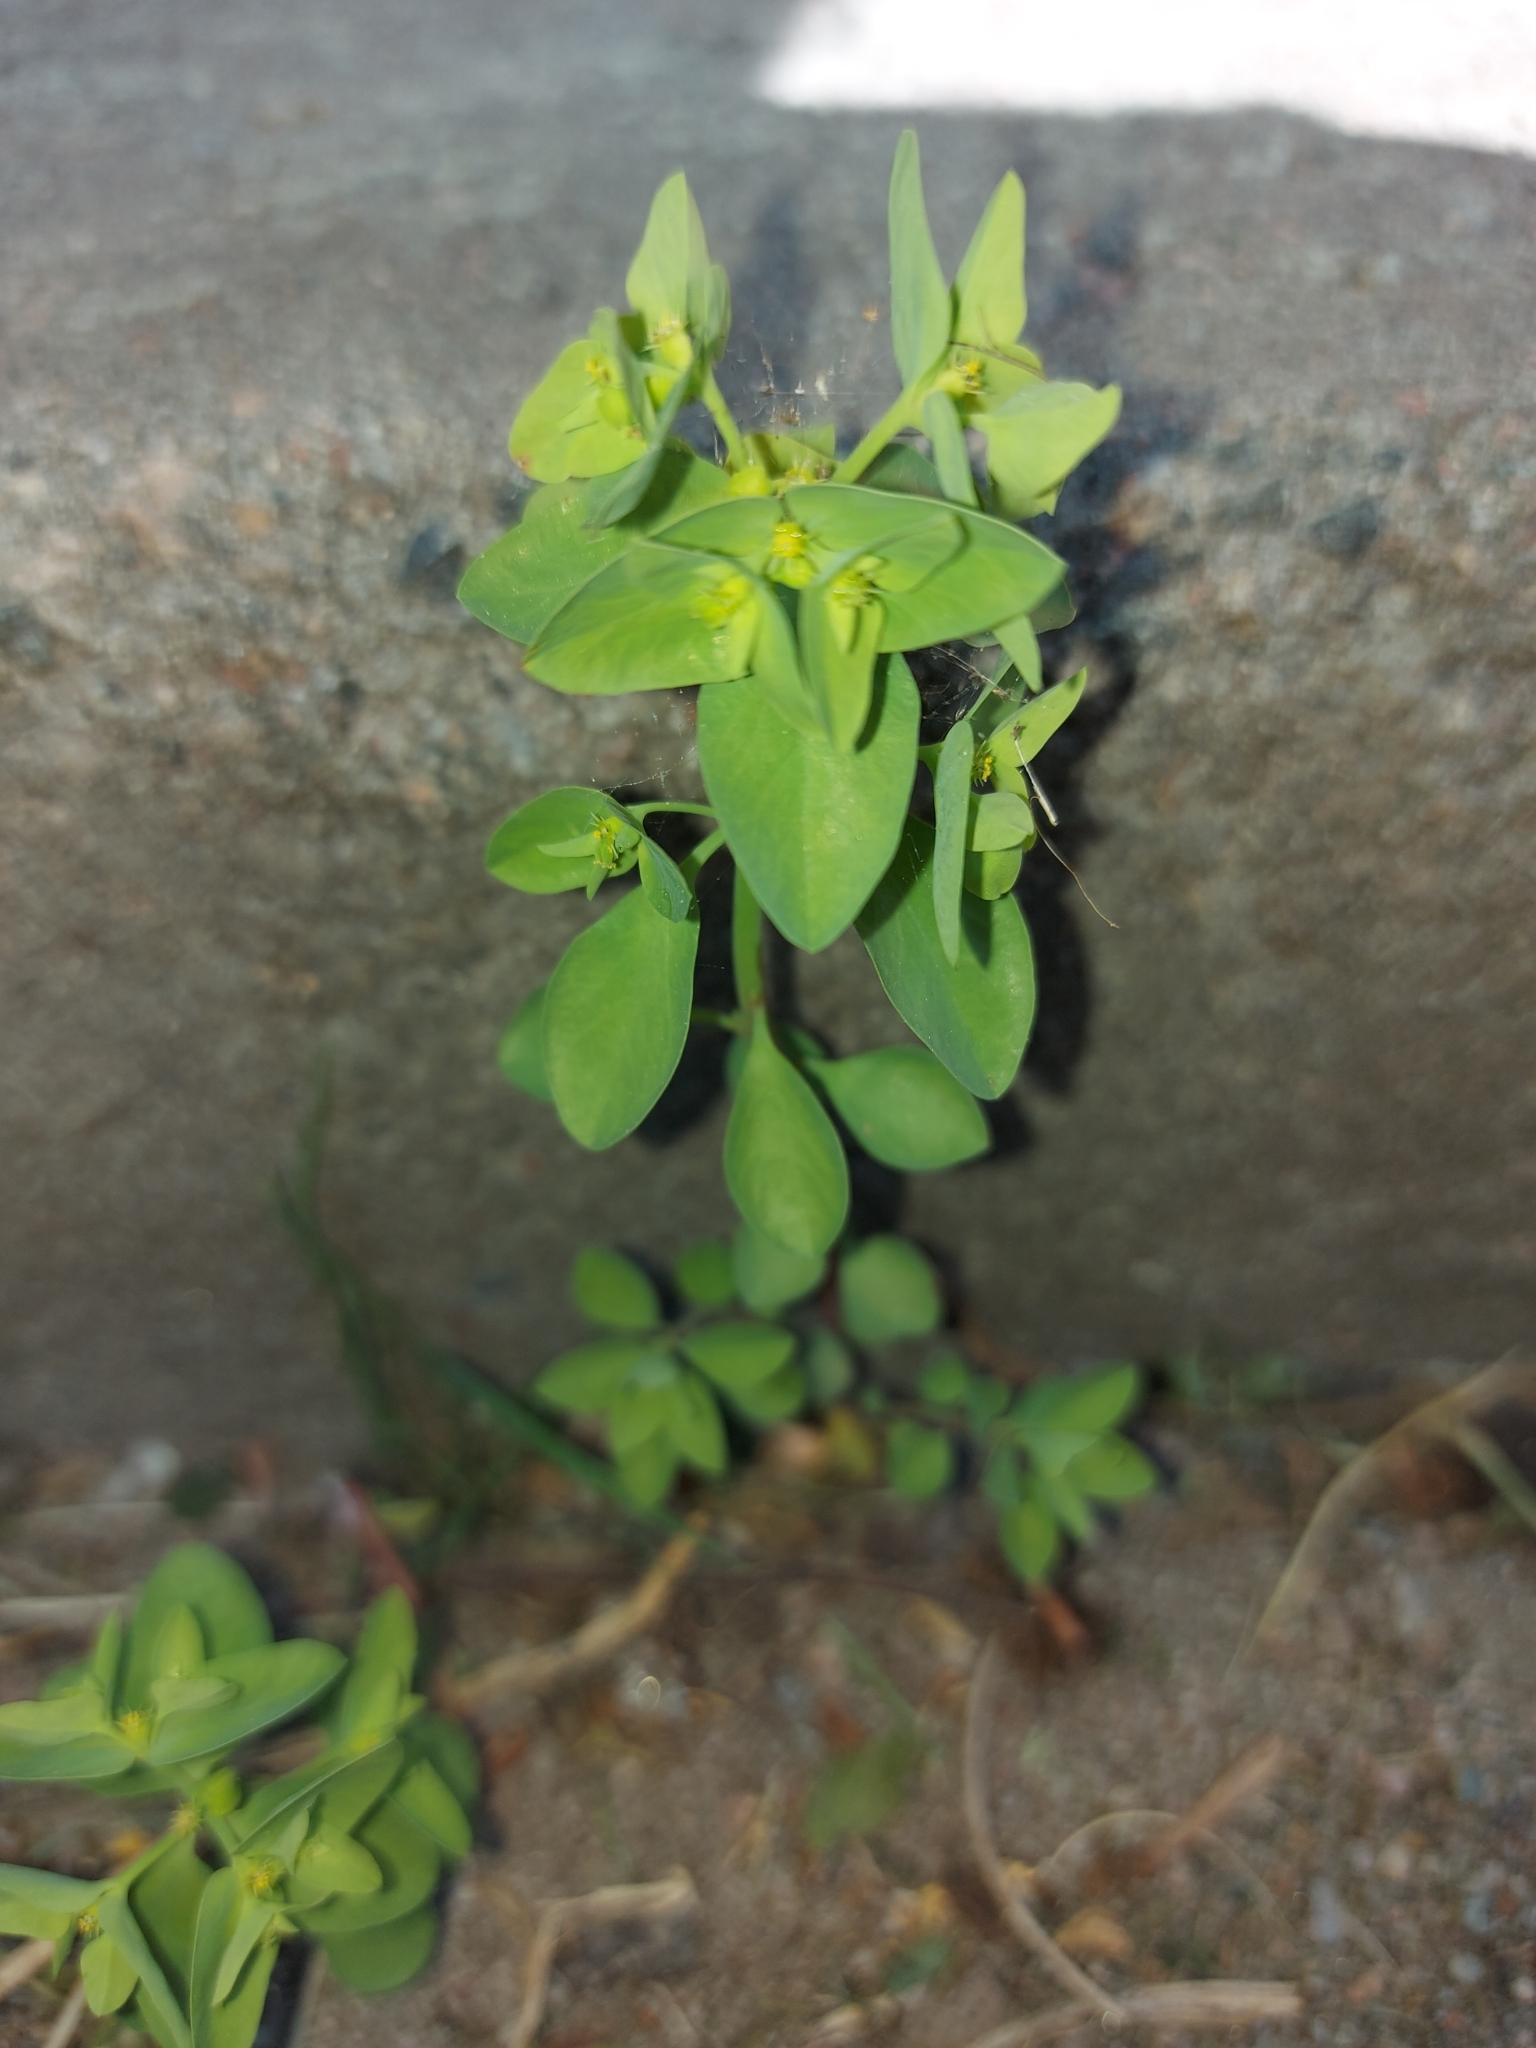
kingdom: Plantae
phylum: Tracheophyta
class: Magnoliopsida
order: Malpighiales
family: Euphorbiaceae
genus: Euphorbia
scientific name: Euphorbia peplus
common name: Petty spurge
